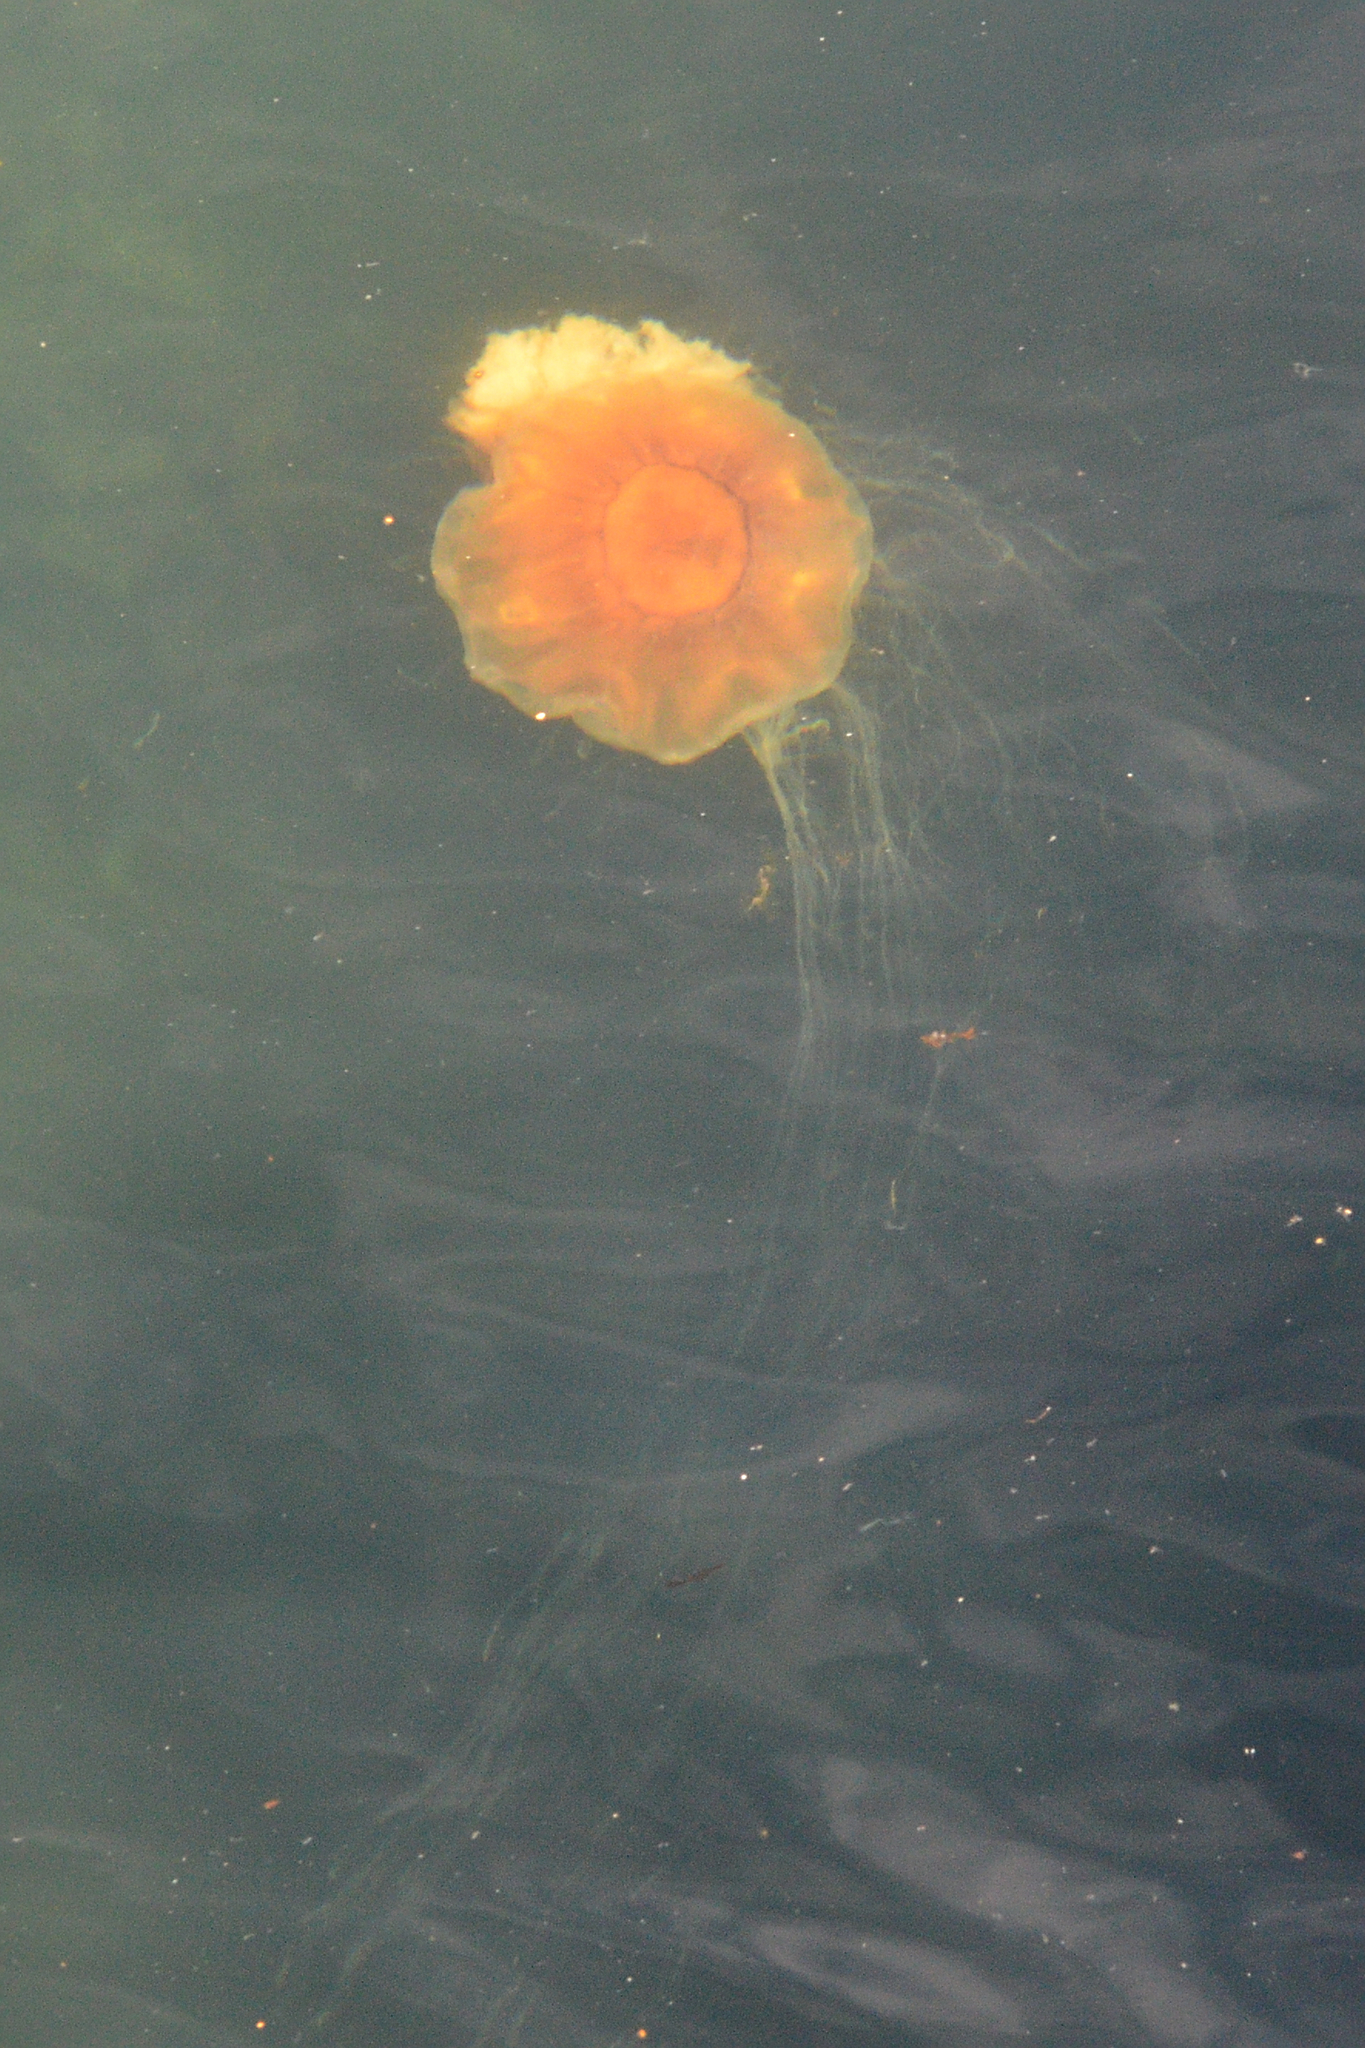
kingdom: Animalia
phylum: Cnidaria
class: Scyphozoa
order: Semaeostomeae
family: Cyaneidae
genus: Cyanea
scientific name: Cyanea capillata
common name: Lion's mane jellyfish
